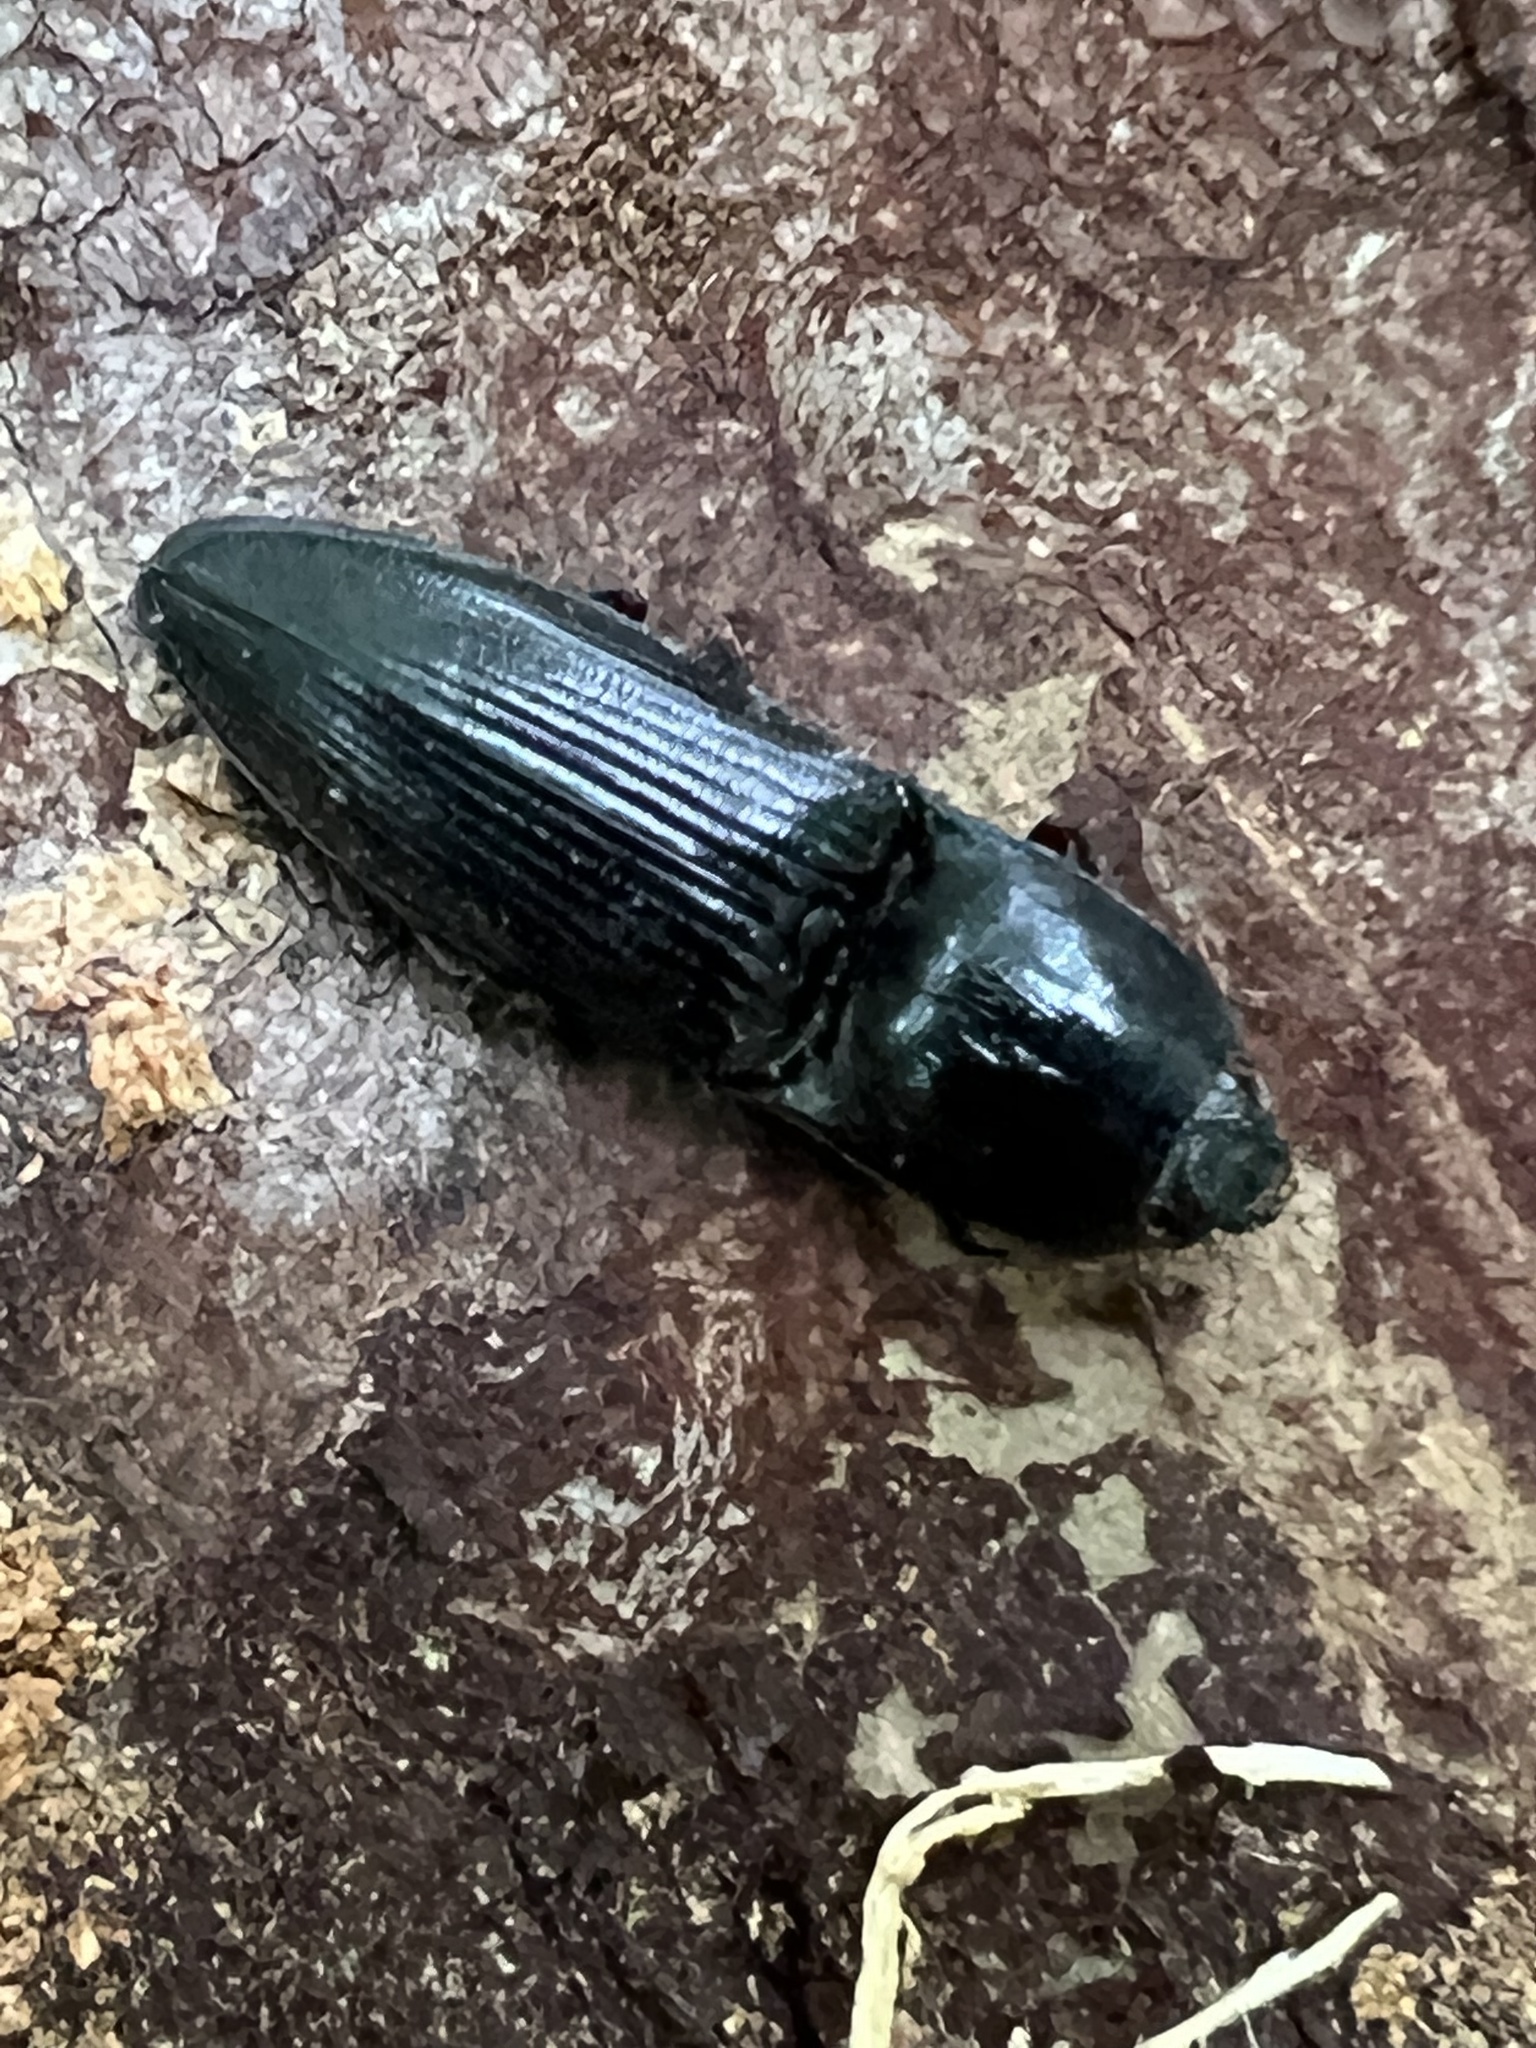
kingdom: Animalia
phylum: Arthropoda
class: Insecta
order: Coleoptera
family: Elateridae
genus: Neopristilophus
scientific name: Neopristilophus
